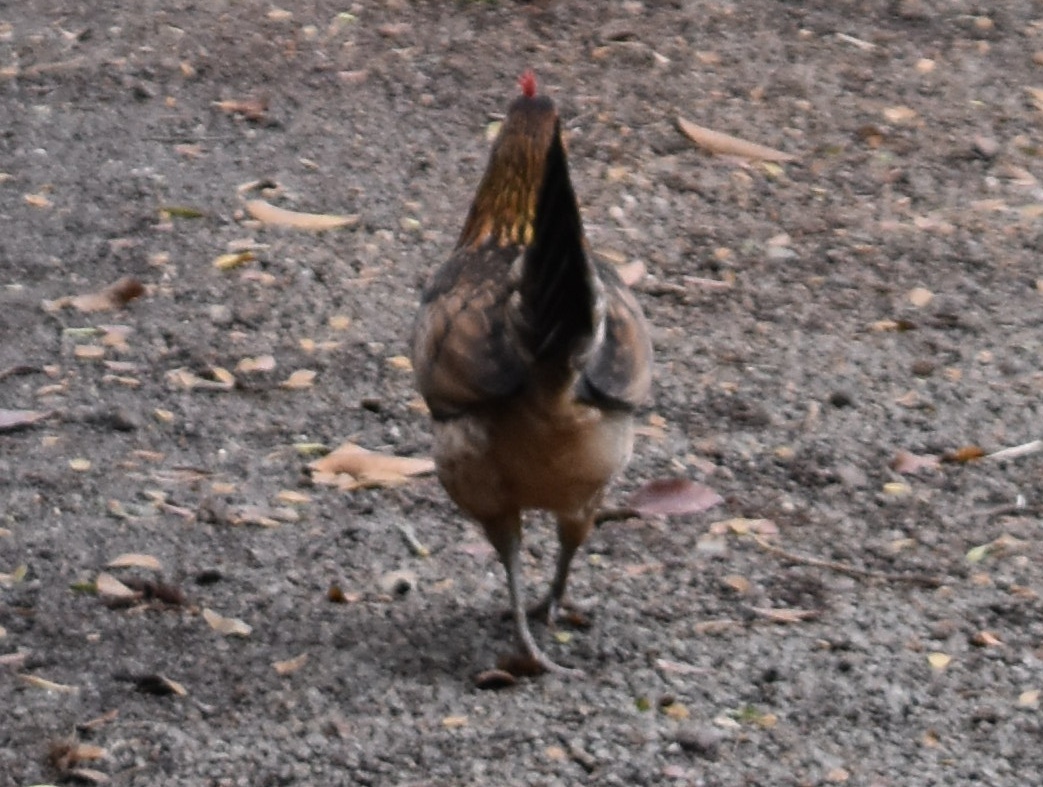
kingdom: Animalia
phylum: Chordata
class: Aves
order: Galliformes
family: Phasianidae
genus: Gallus
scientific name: Gallus gallus
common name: Red junglefowl
